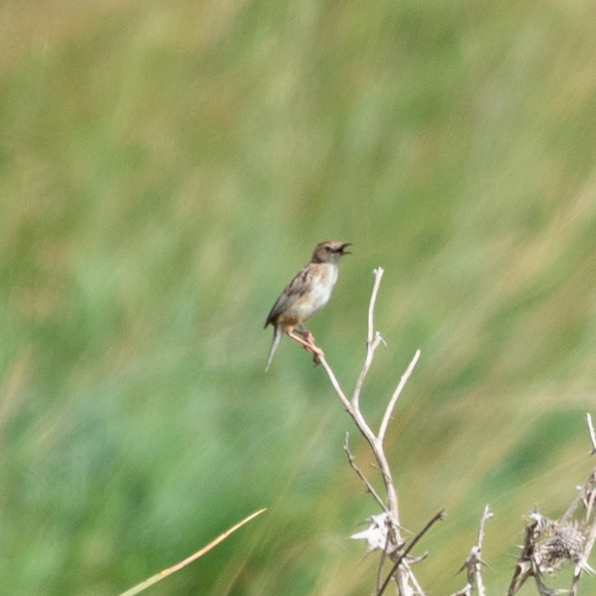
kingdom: Animalia
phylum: Chordata
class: Aves
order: Passeriformes
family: Cisticolidae
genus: Cisticola
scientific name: Cisticola juncidis
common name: Zitting cisticola
